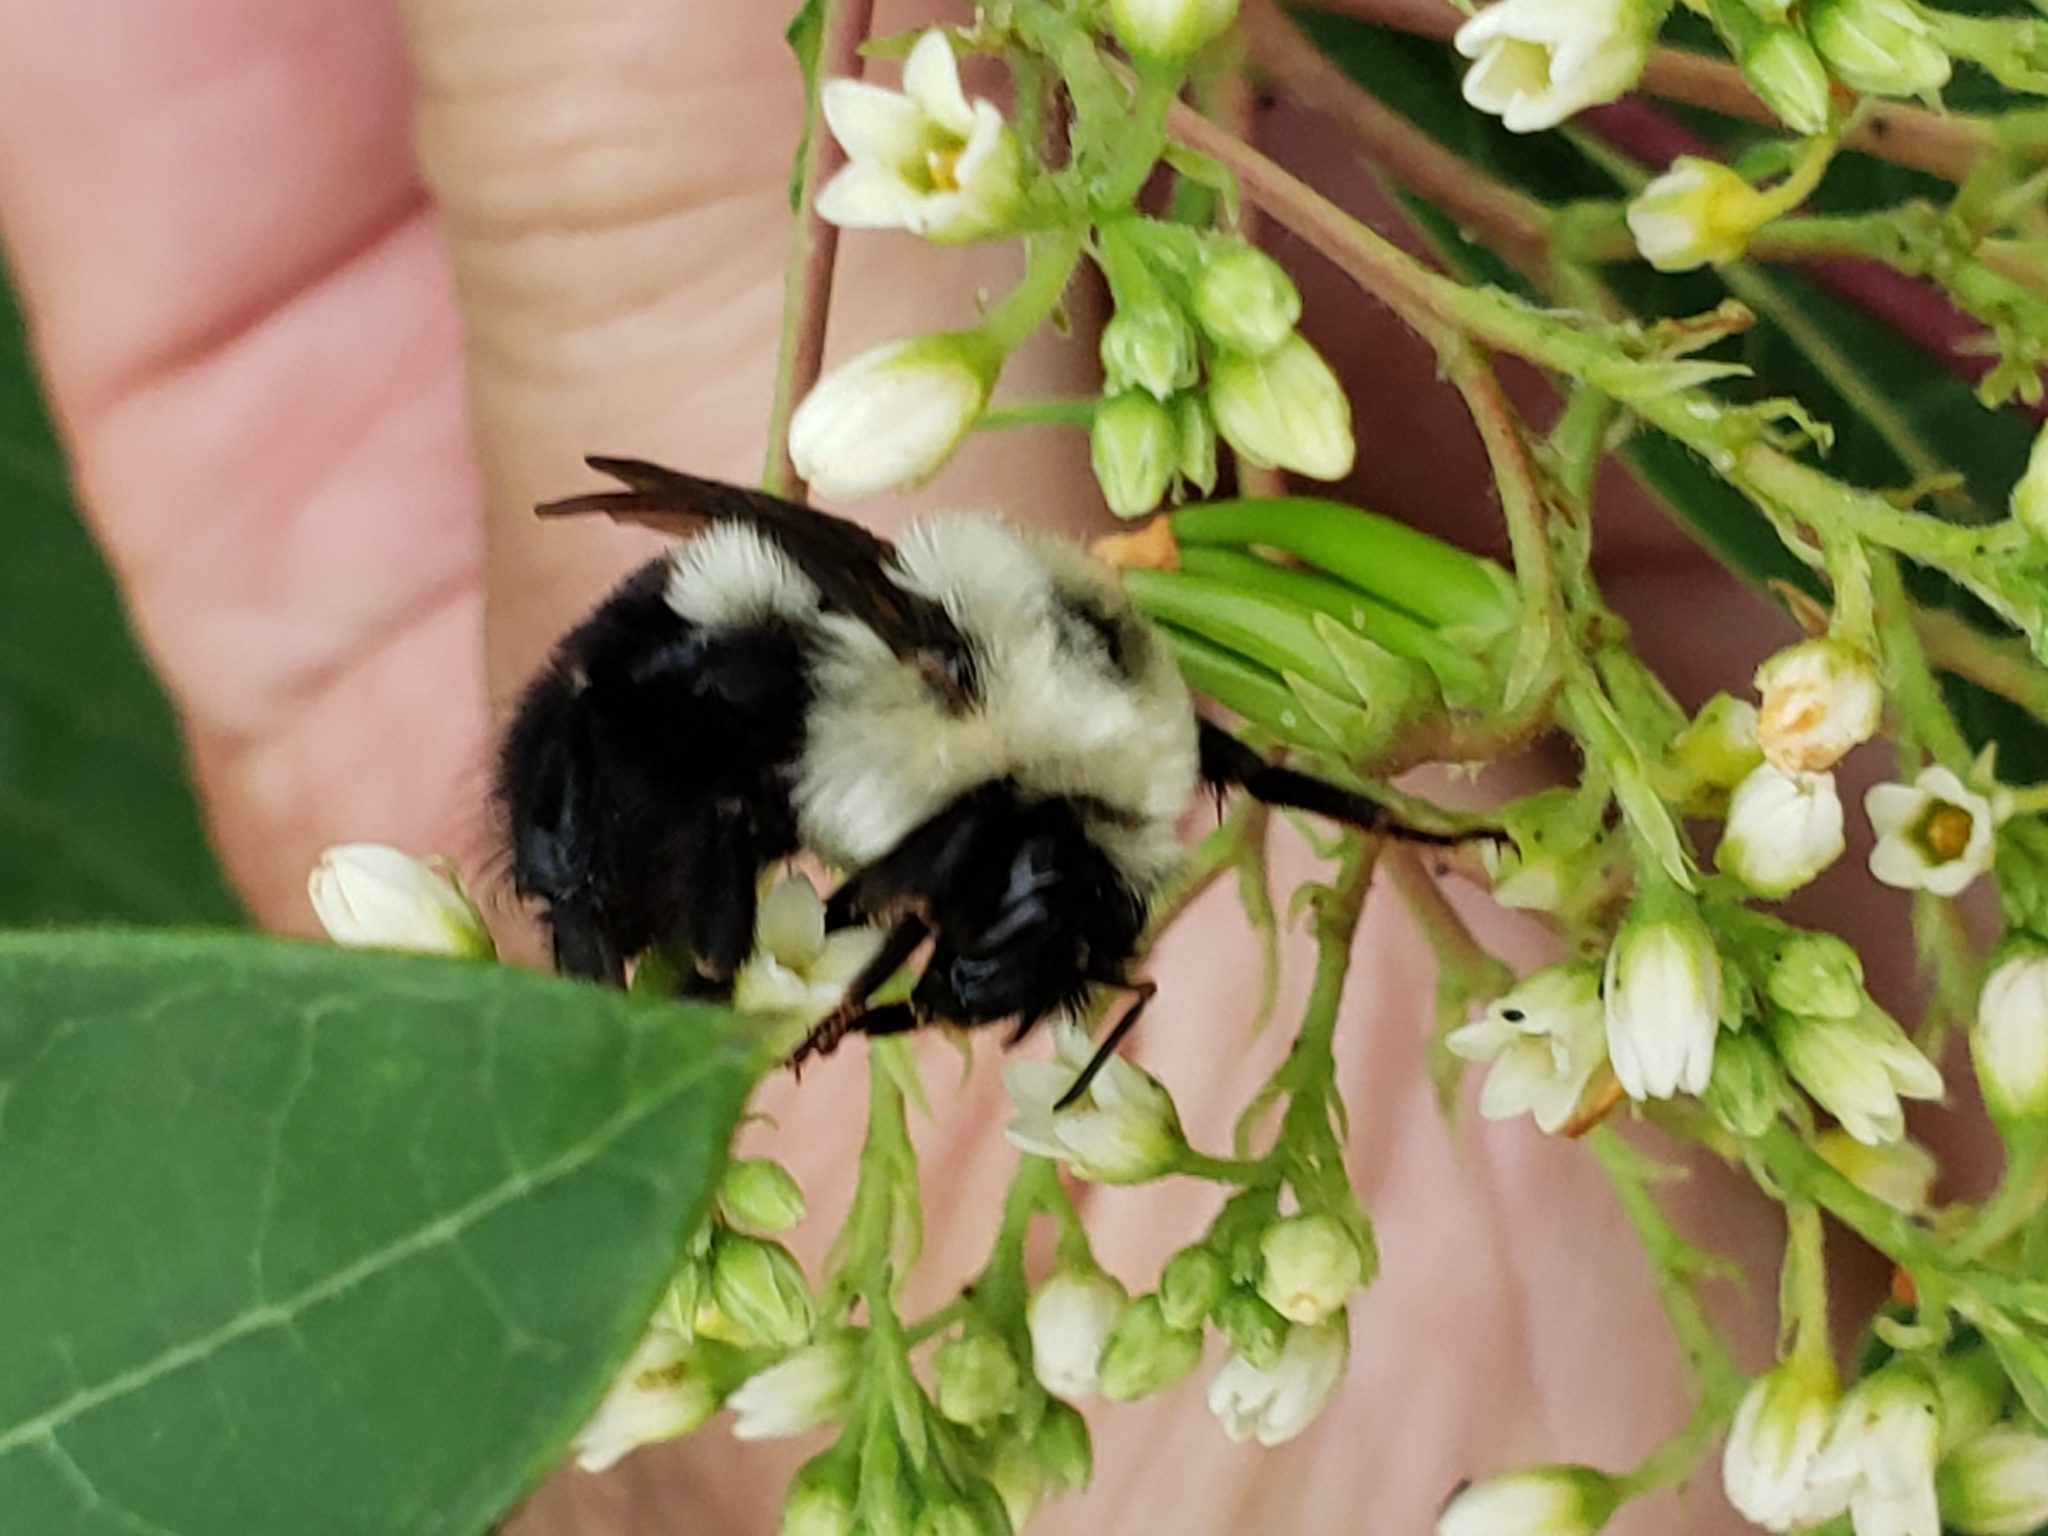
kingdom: Animalia
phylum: Arthropoda
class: Insecta
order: Hymenoptera
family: Apidae
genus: Bombus
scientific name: Bombus bimaculatus
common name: Two-spotted bumble bee
